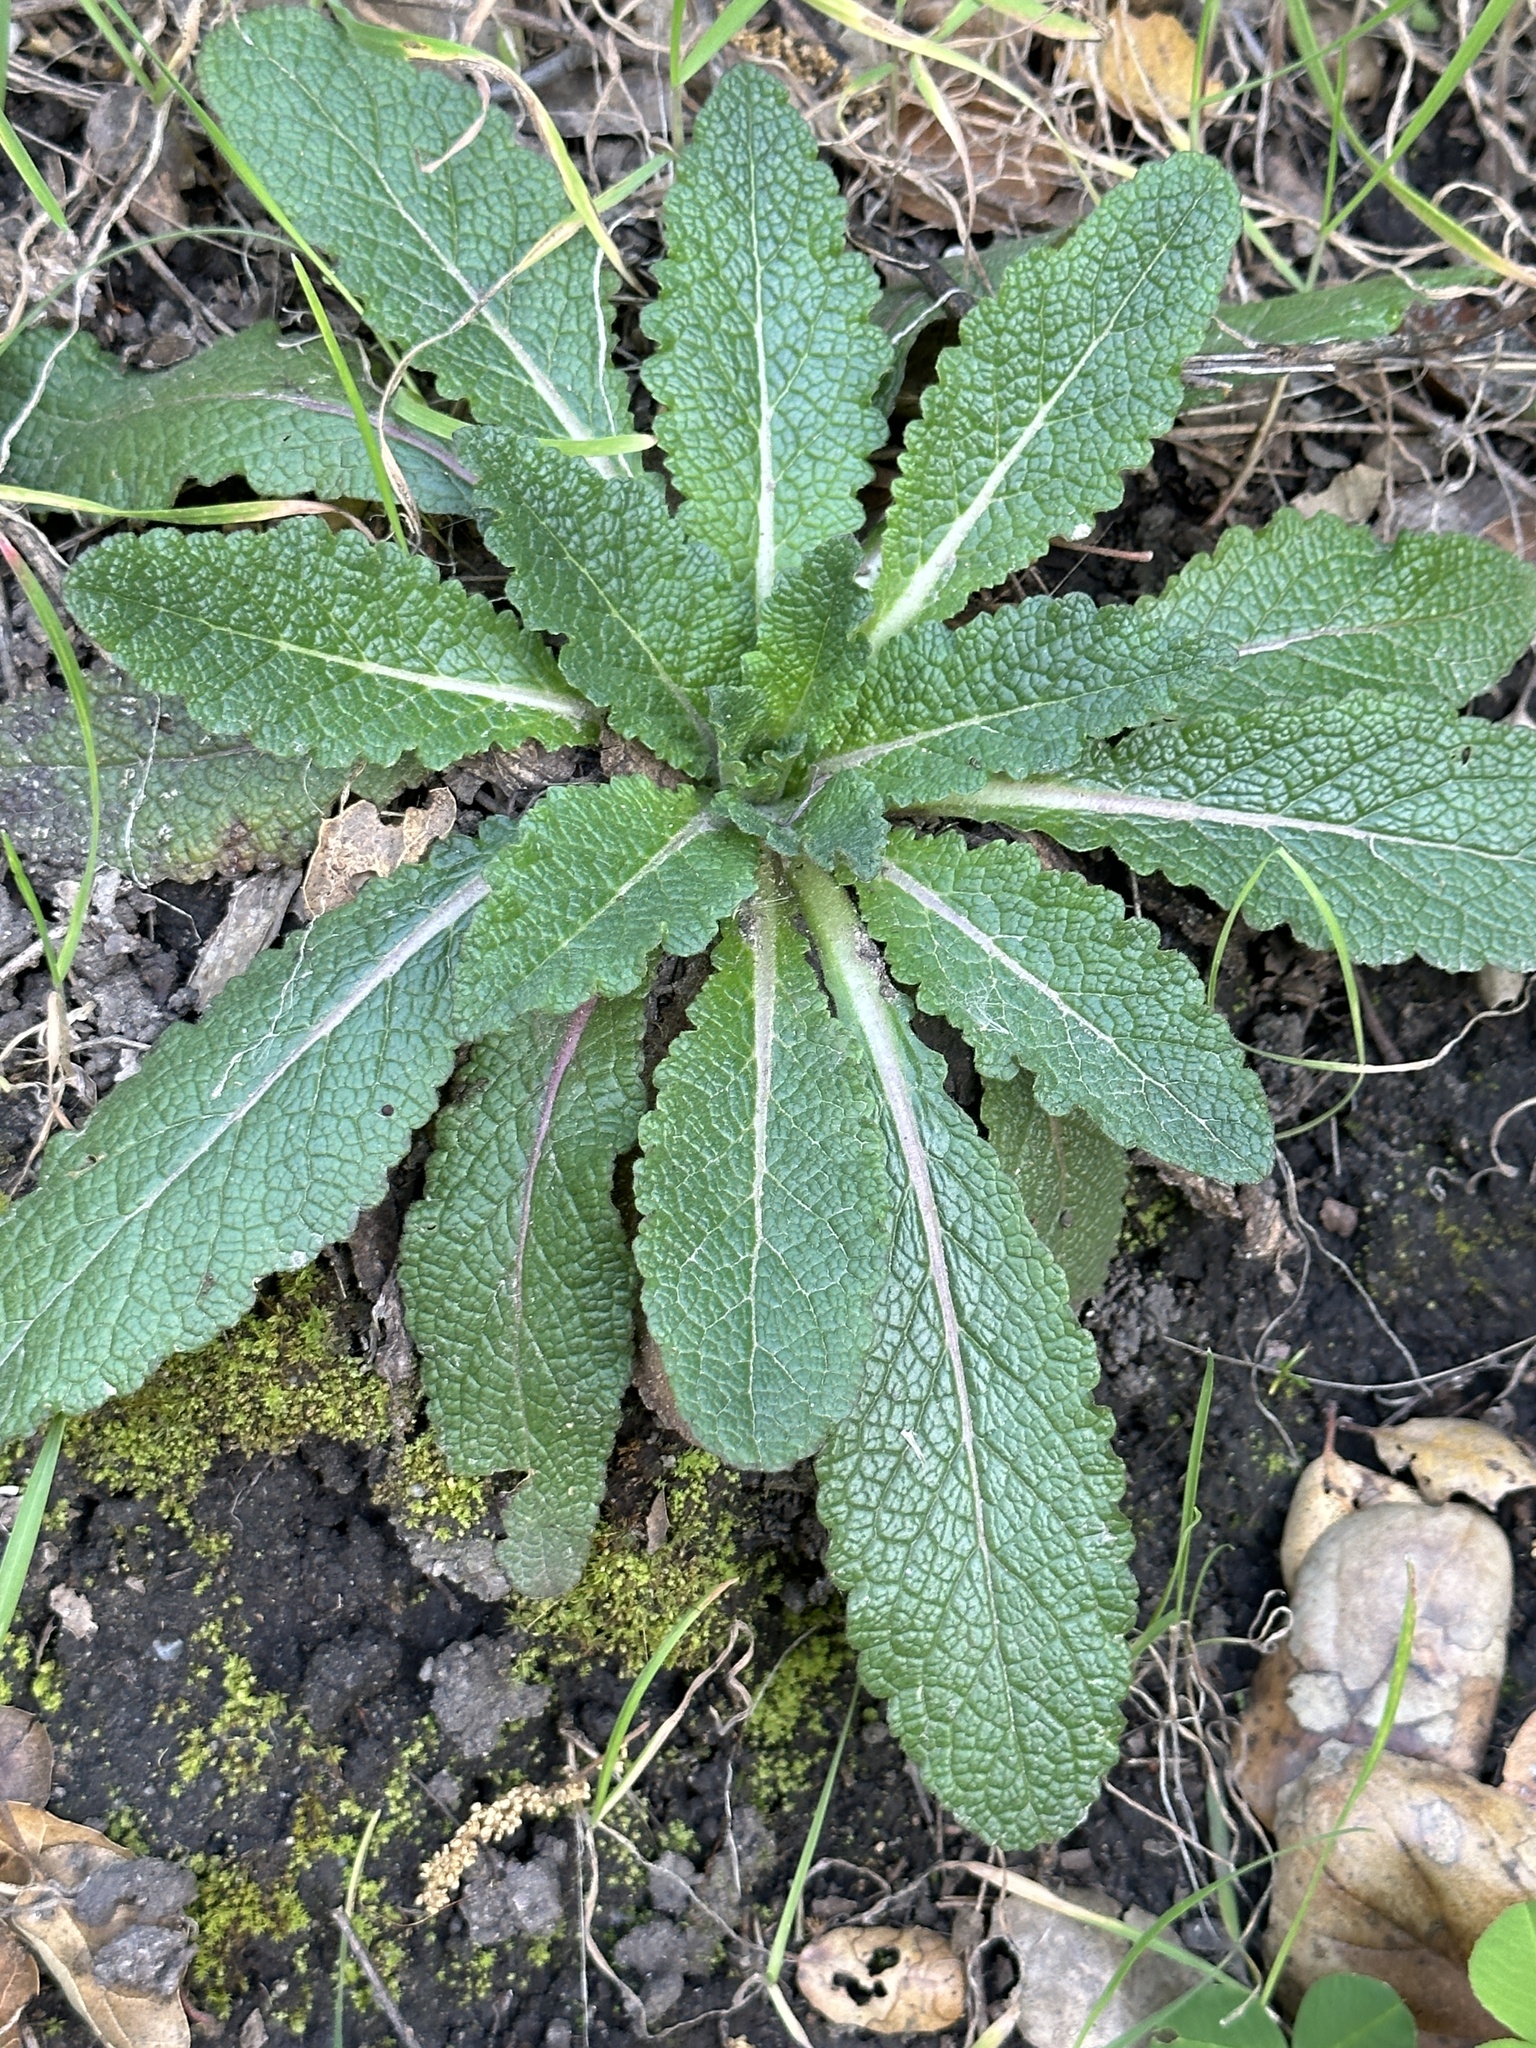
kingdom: Plantae
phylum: Tracheophyta
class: Magnoliopsida
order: Lamiales
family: Scrophulariaceae
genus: Verbascum
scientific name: Verbascum virgatum
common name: Twiggy mullein
